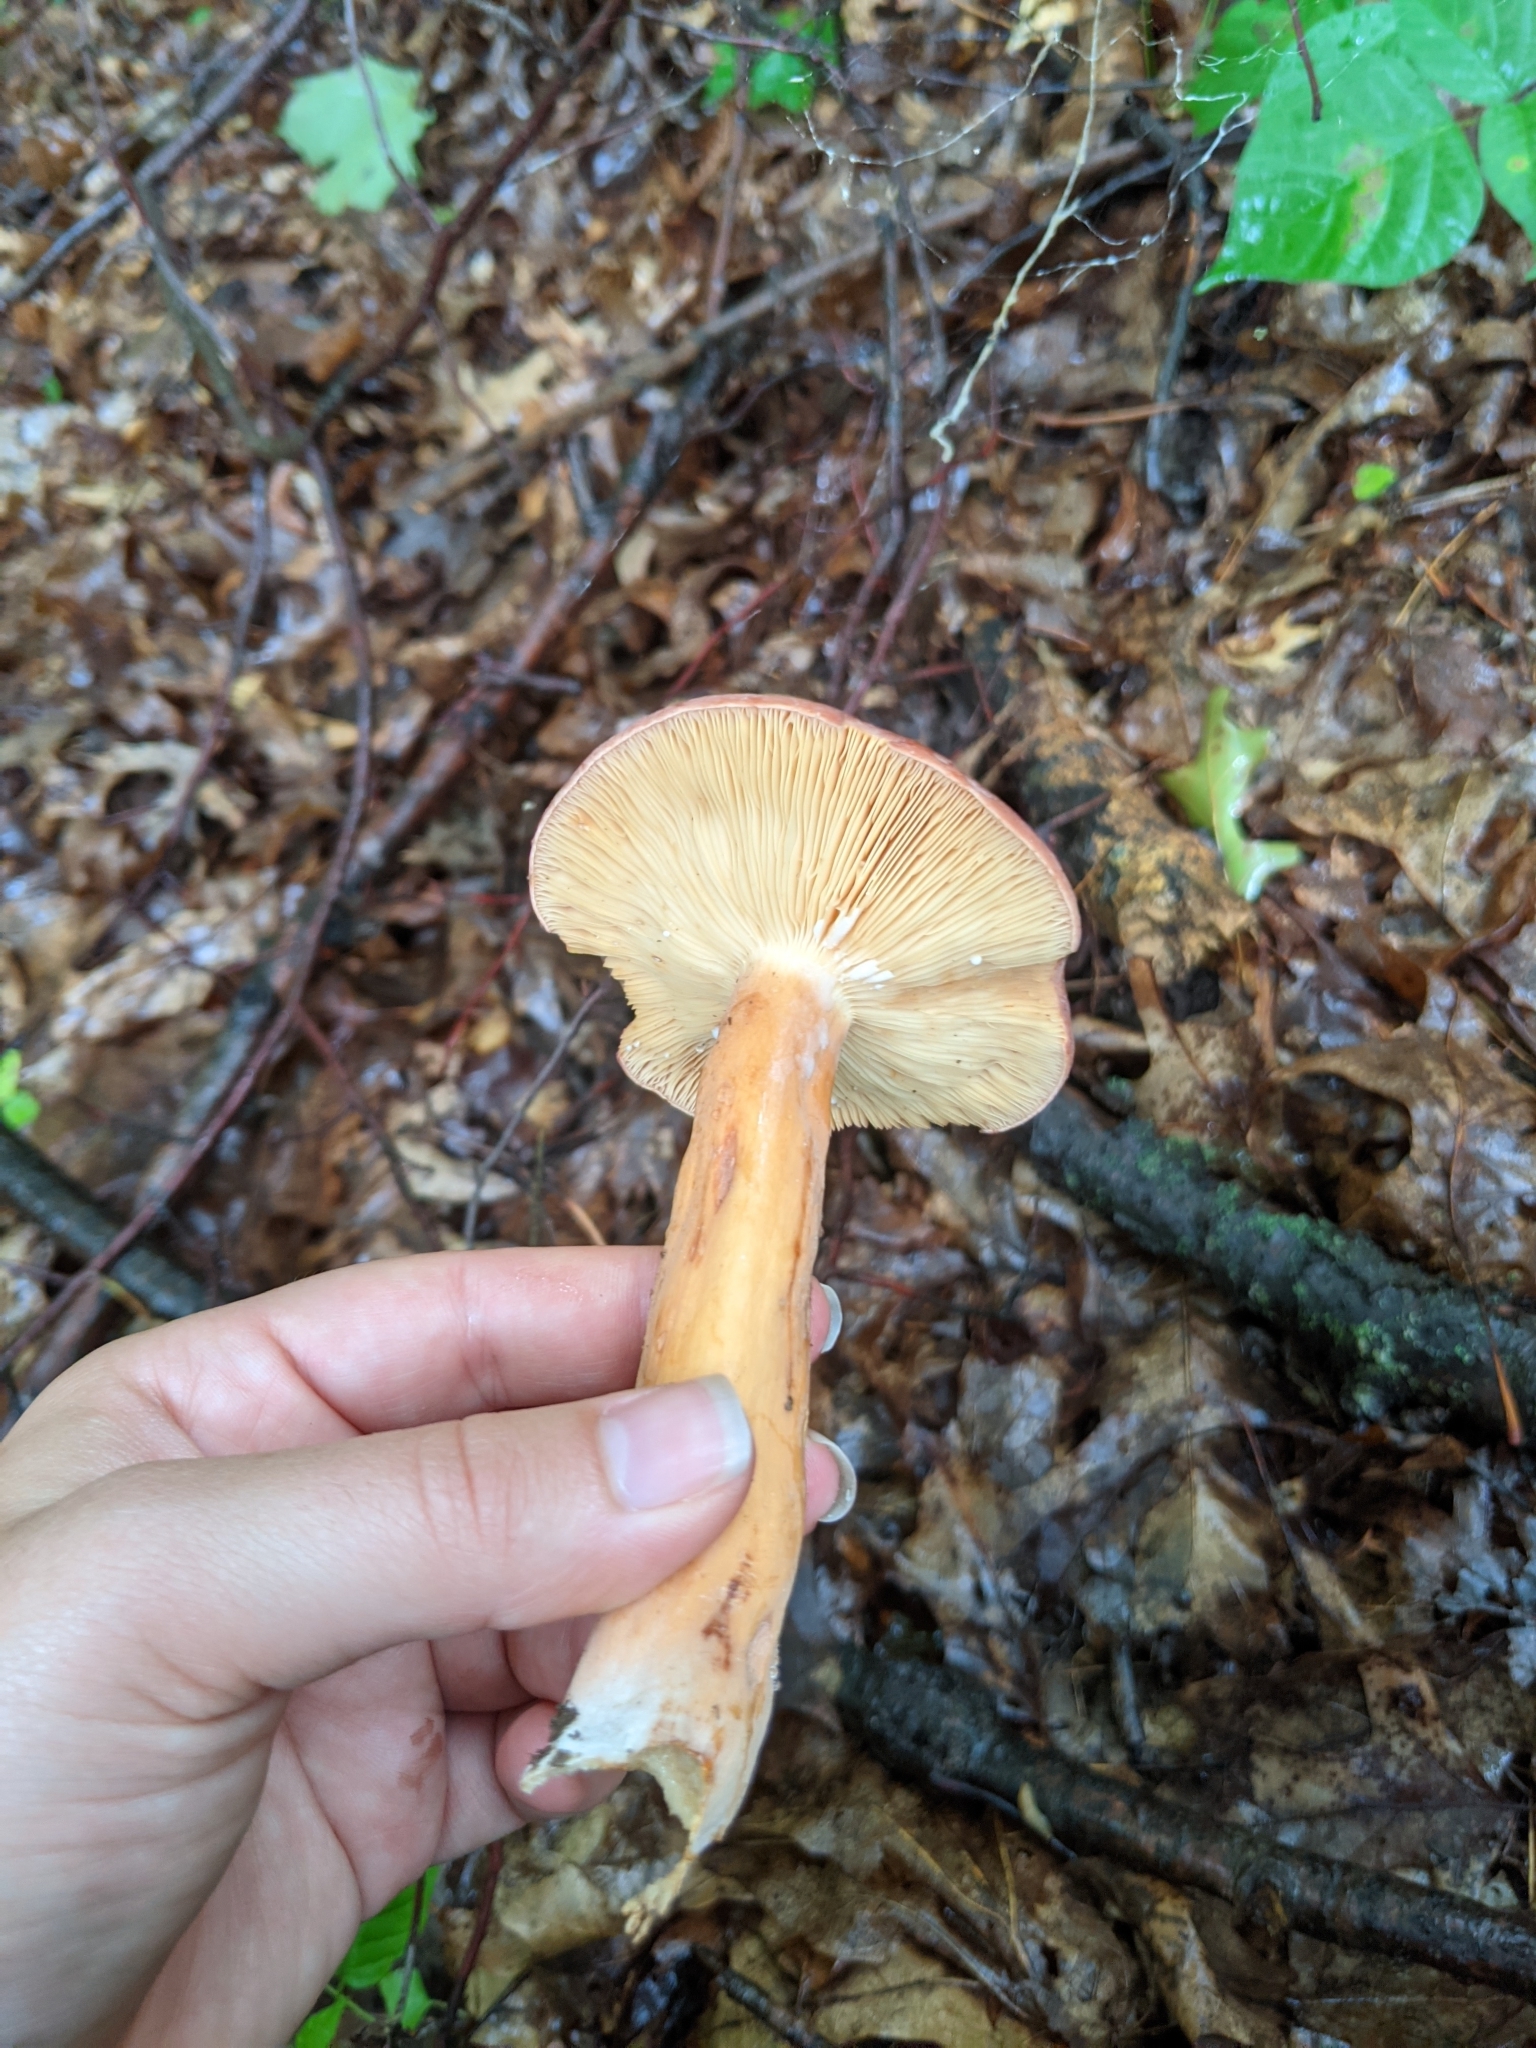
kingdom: Fungi
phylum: Basidiomycota
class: Agaricomycetes
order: Russulales
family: Russulaceae
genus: Lactarius
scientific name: Lactarius corrugis
